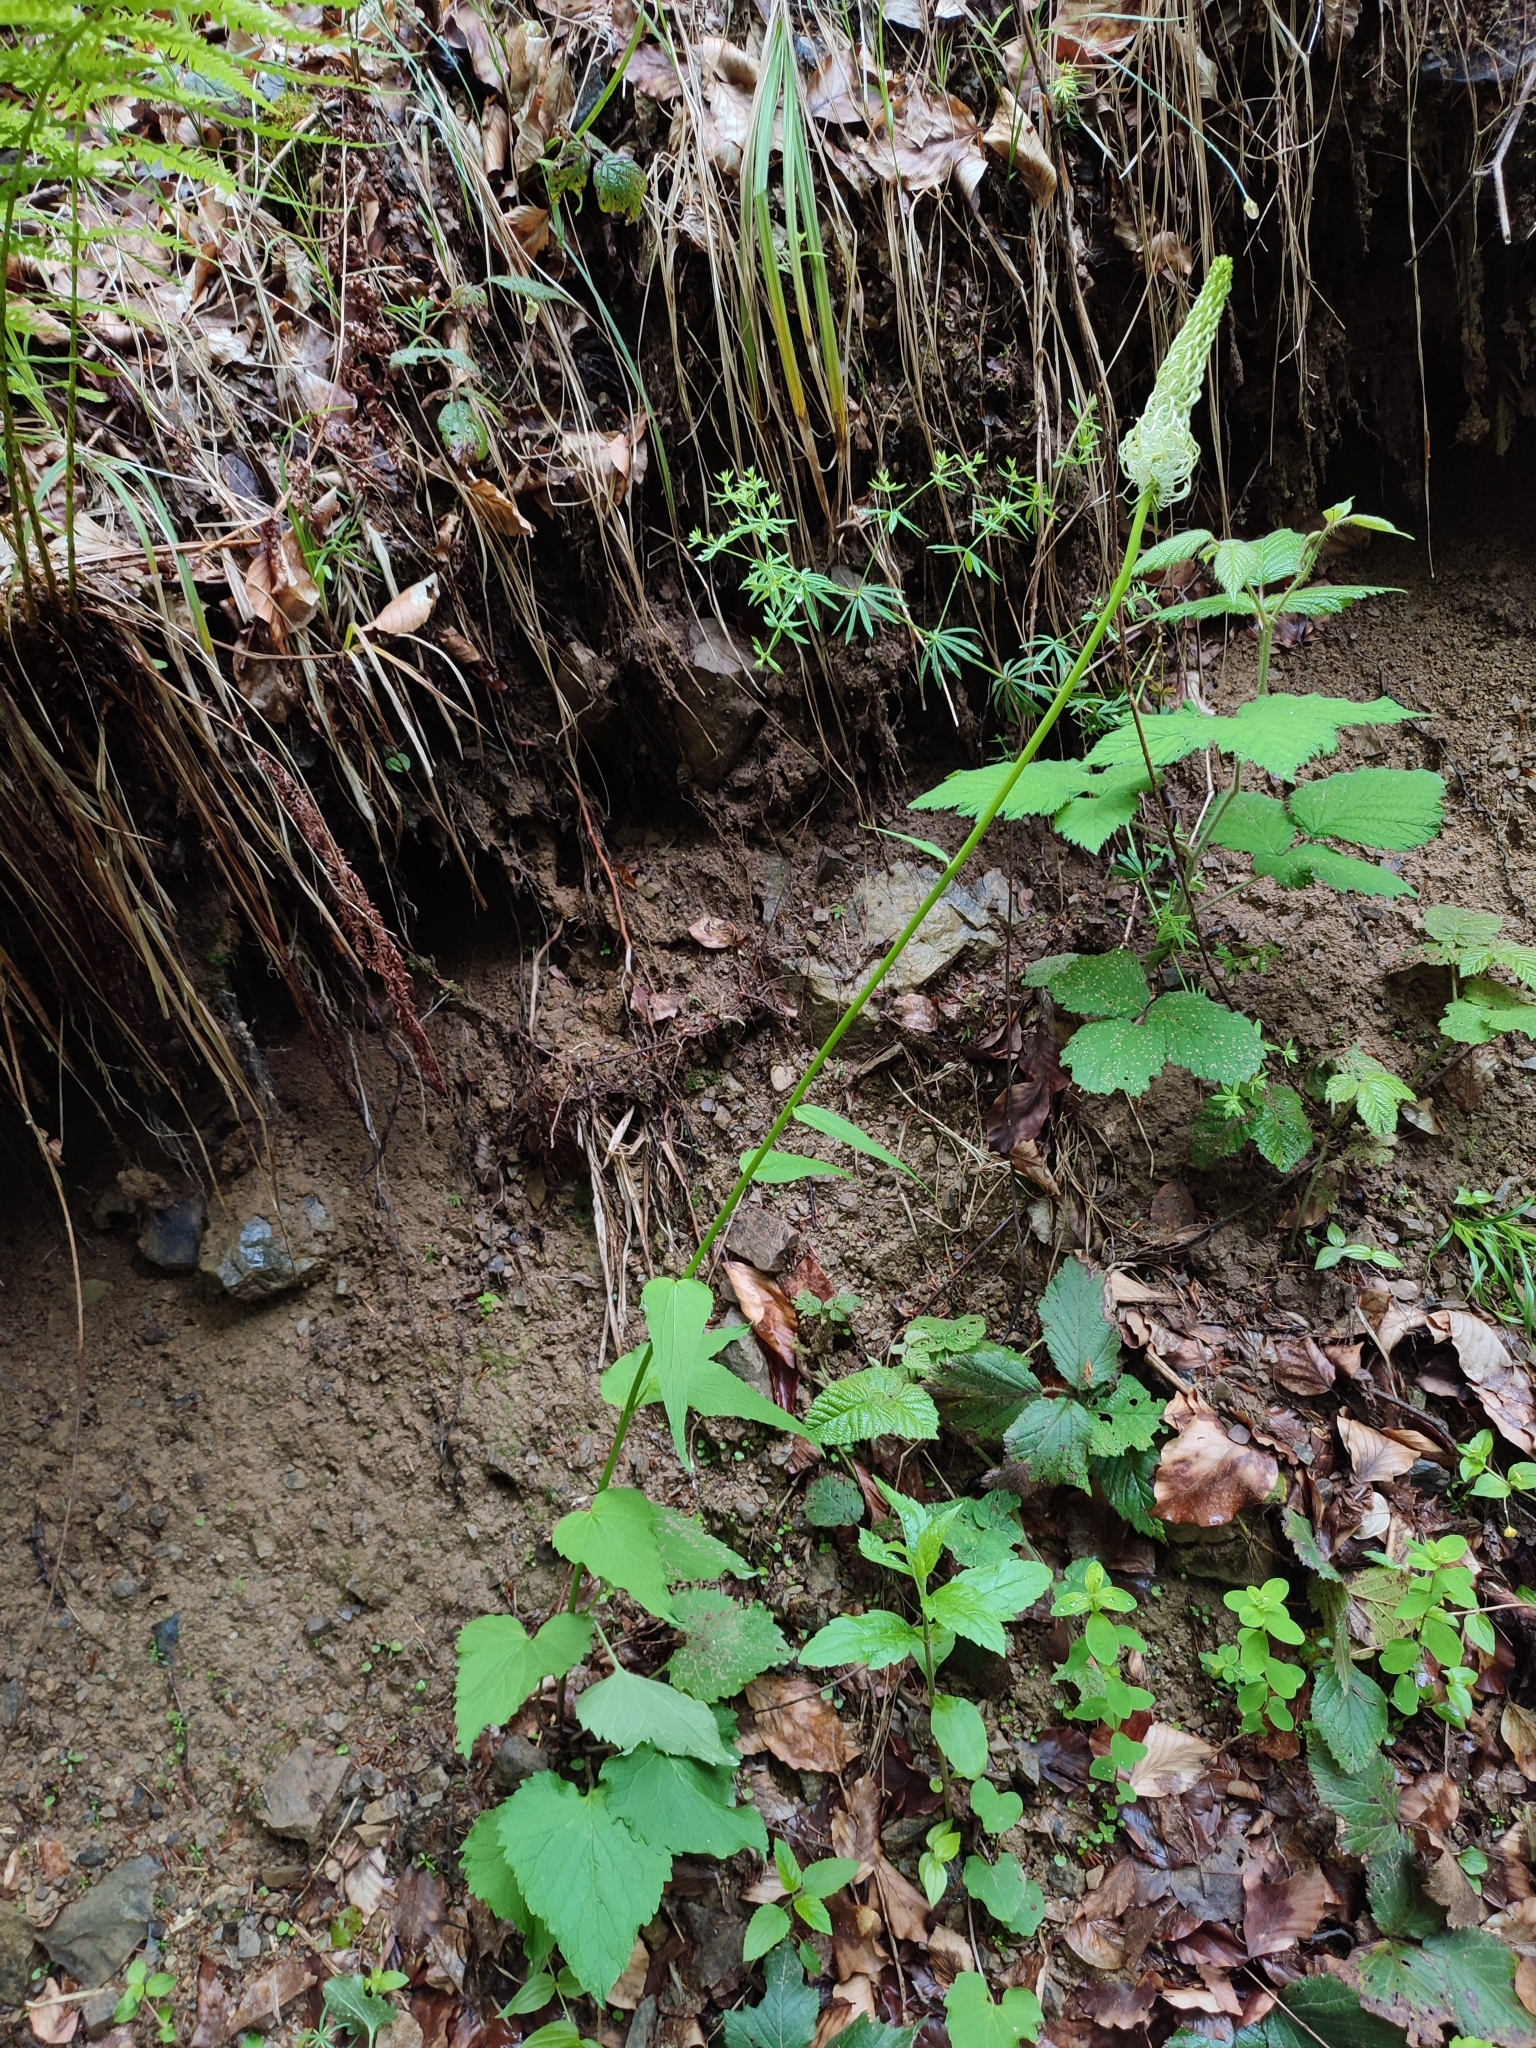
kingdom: Plantae
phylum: Tracheophyta
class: Magnoliopsida
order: Asterales
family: Campanulaceae
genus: Phyteuma
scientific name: Phyteuma spicatum
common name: Spiked rampion
